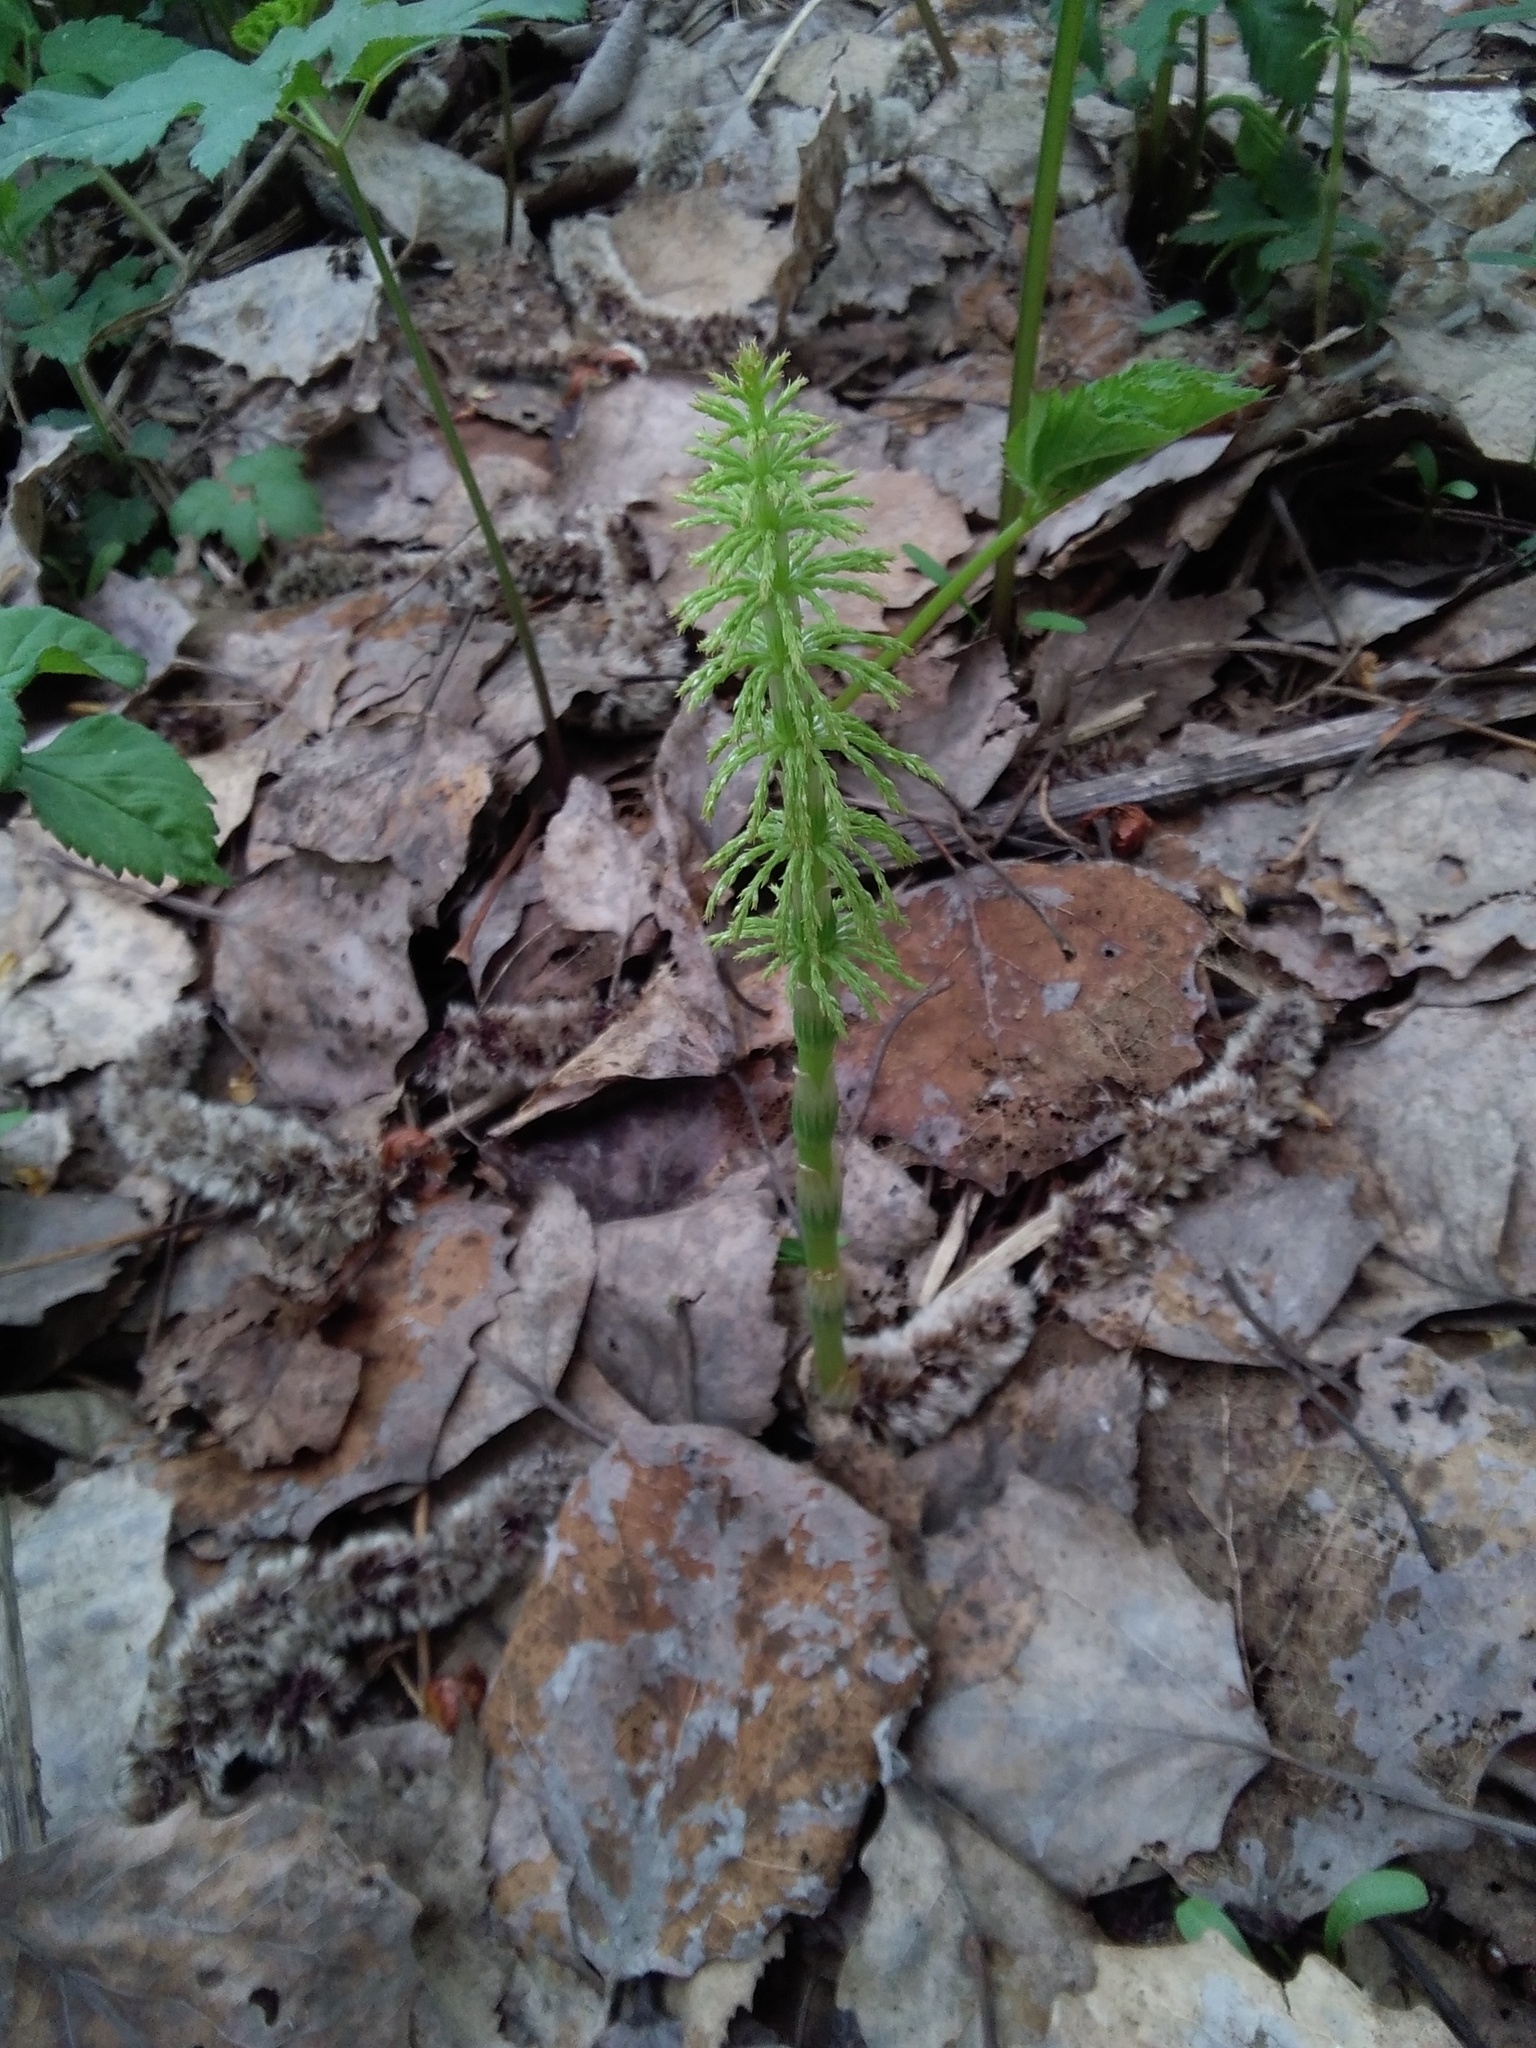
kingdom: Plantae
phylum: Tracheophyta
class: Polypodiopsida
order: Equisetales
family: Equisetaceae
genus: Equisetum
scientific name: Equisetum sylvaticum
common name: Wood horsetail
